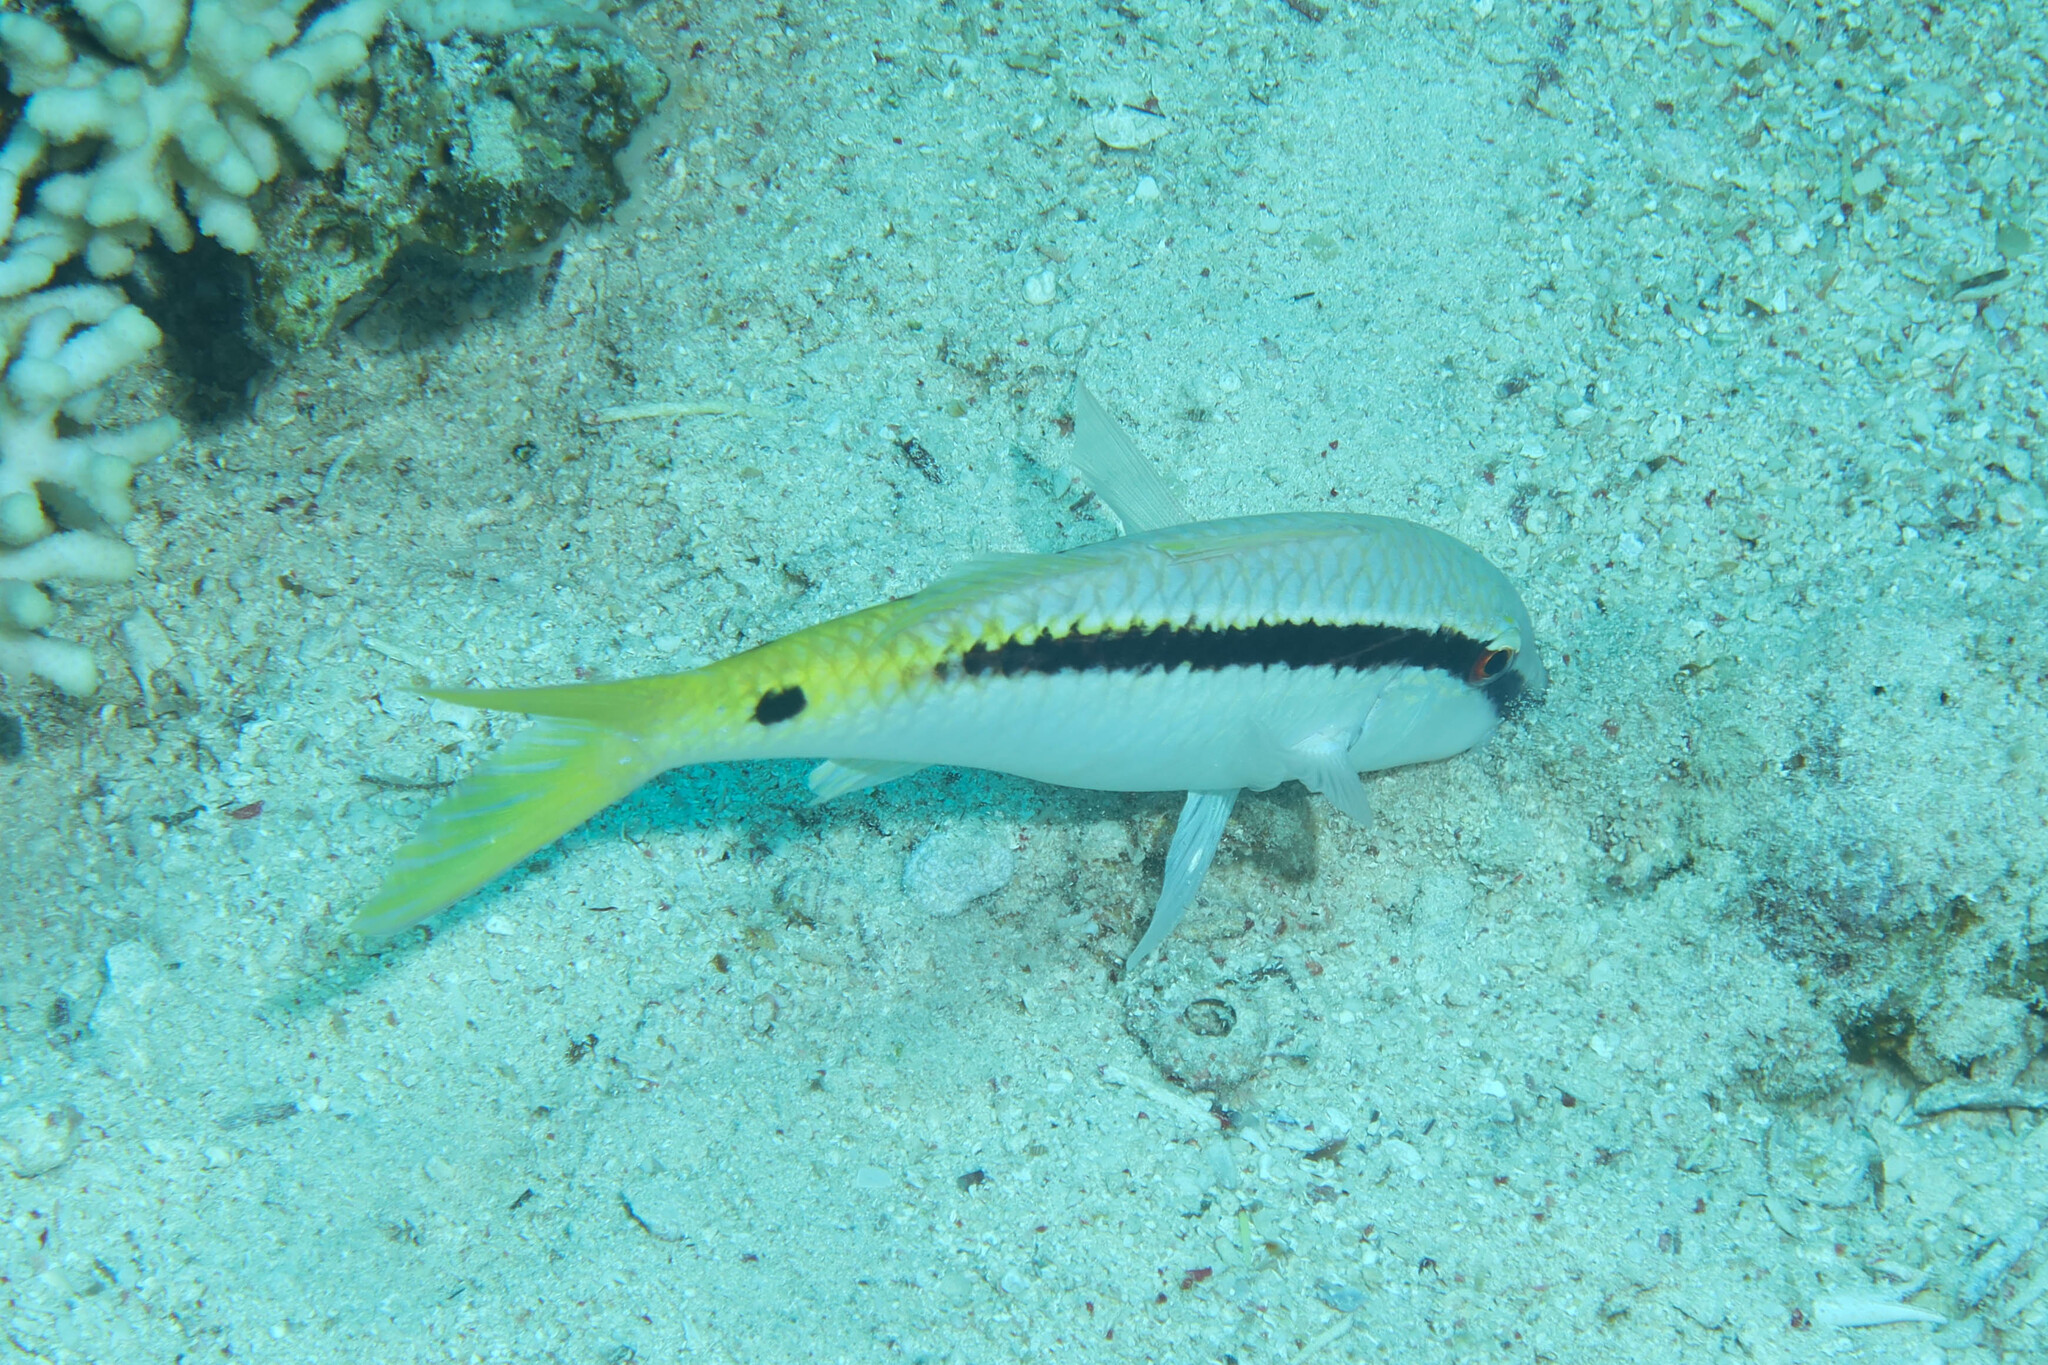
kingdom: Animalia
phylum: Chordata
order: Perciformes
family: Mullidae
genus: Parupeneus
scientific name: Parupeneus forsskali
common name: Red sea goatfish
